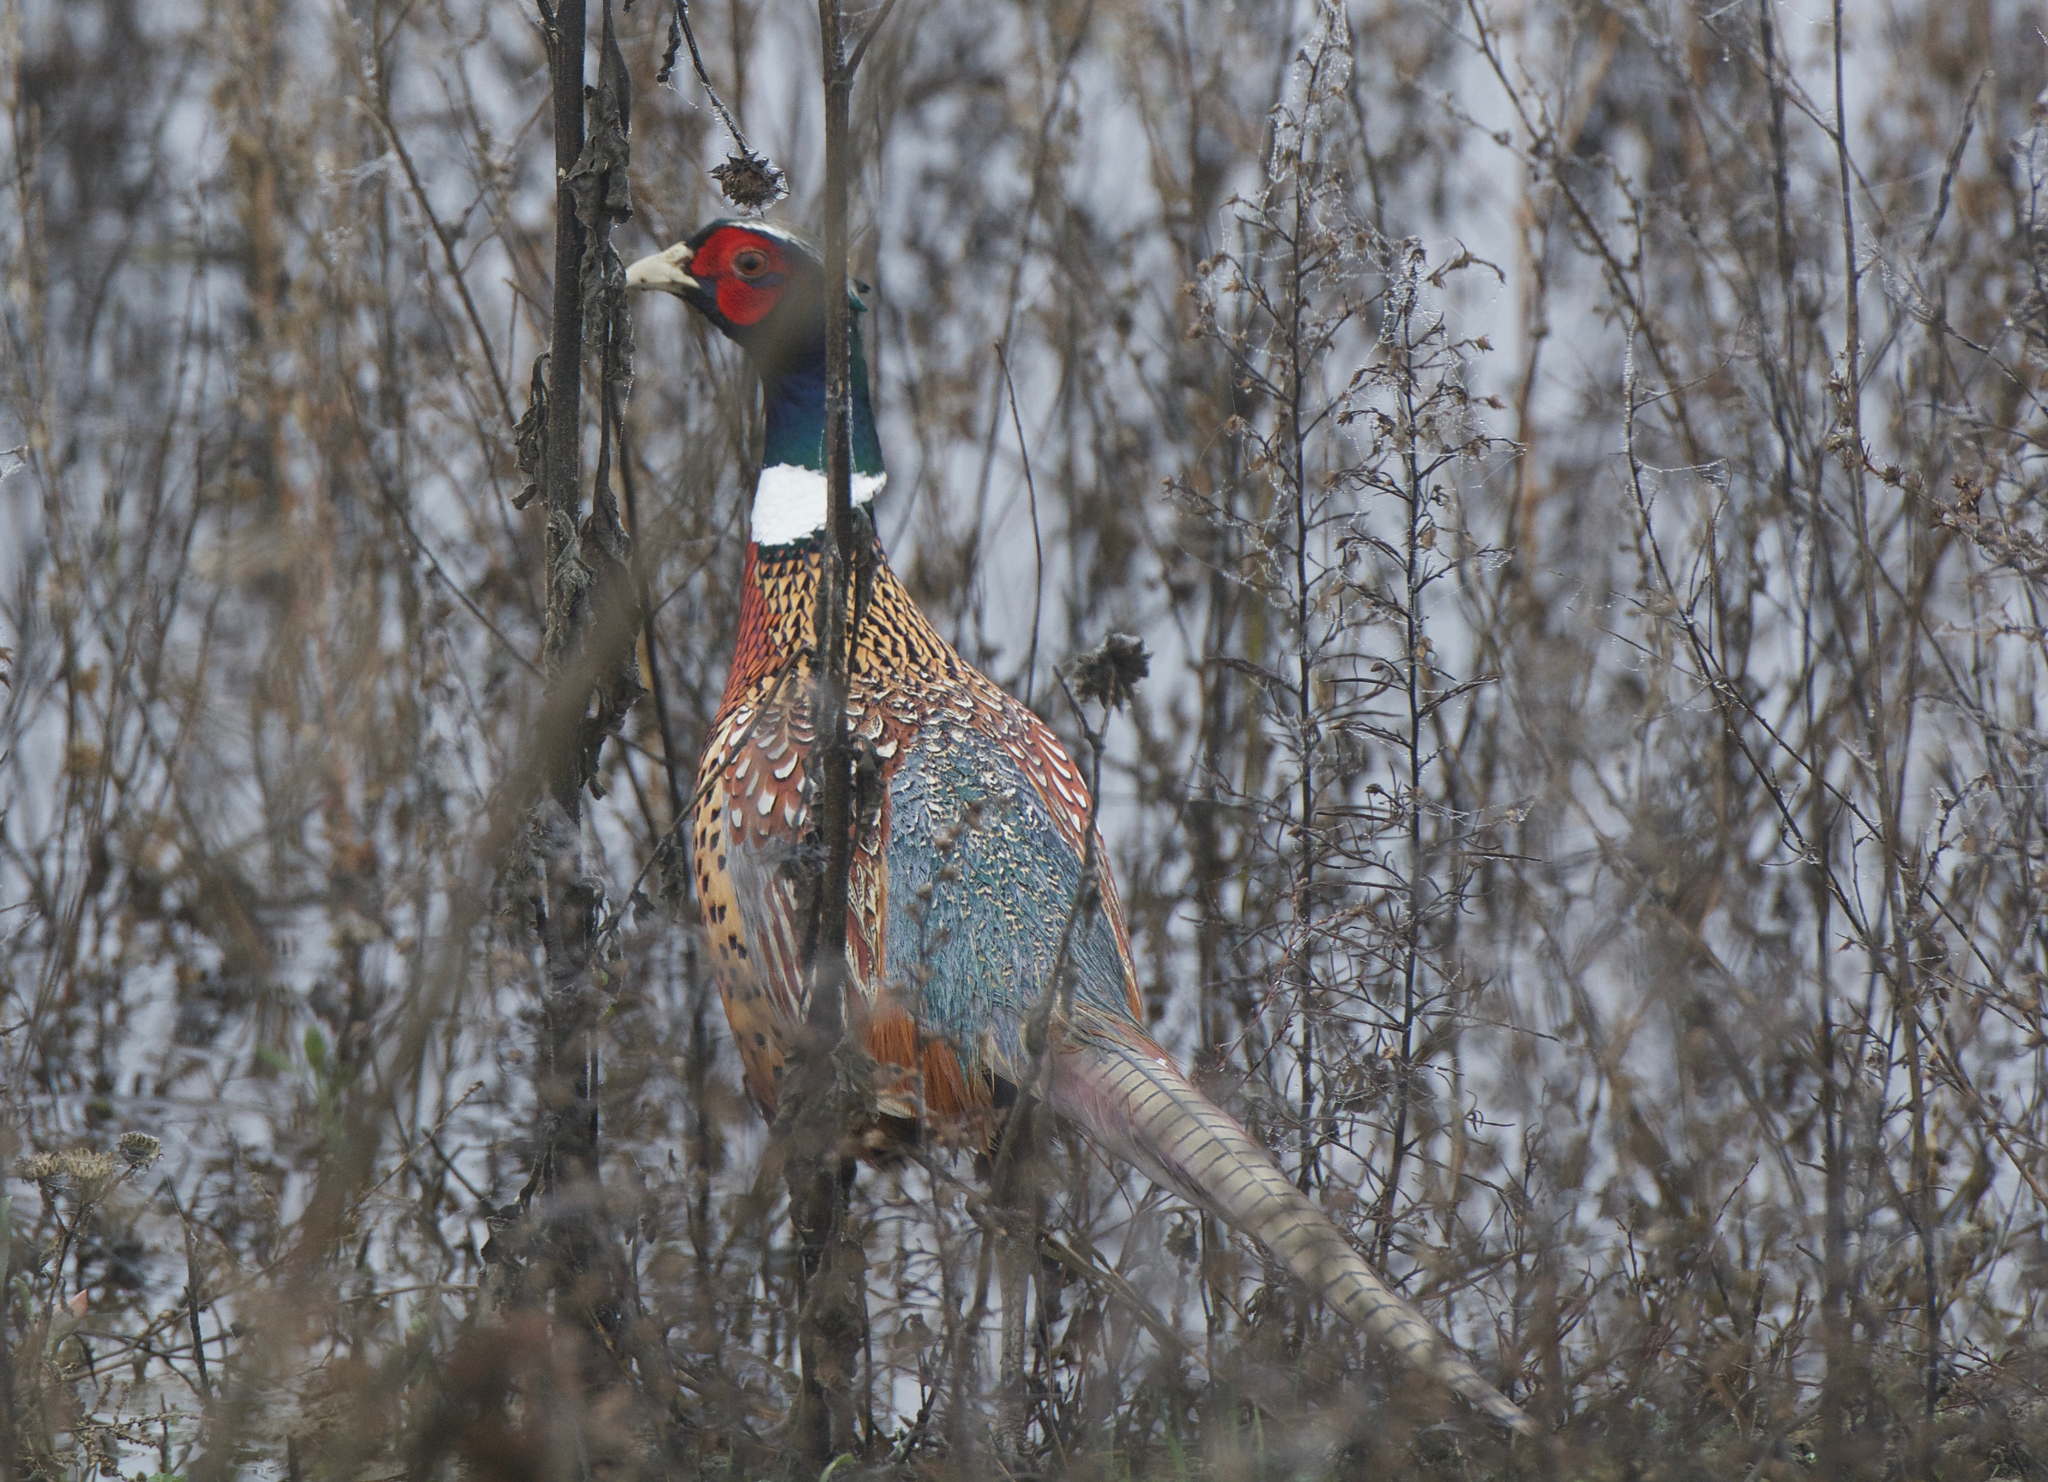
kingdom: Animalia
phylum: Chordata
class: Aves
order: Galliformes
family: Phasianidae
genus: Phasianus
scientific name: Phasianus colchicus
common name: Common pheasant
